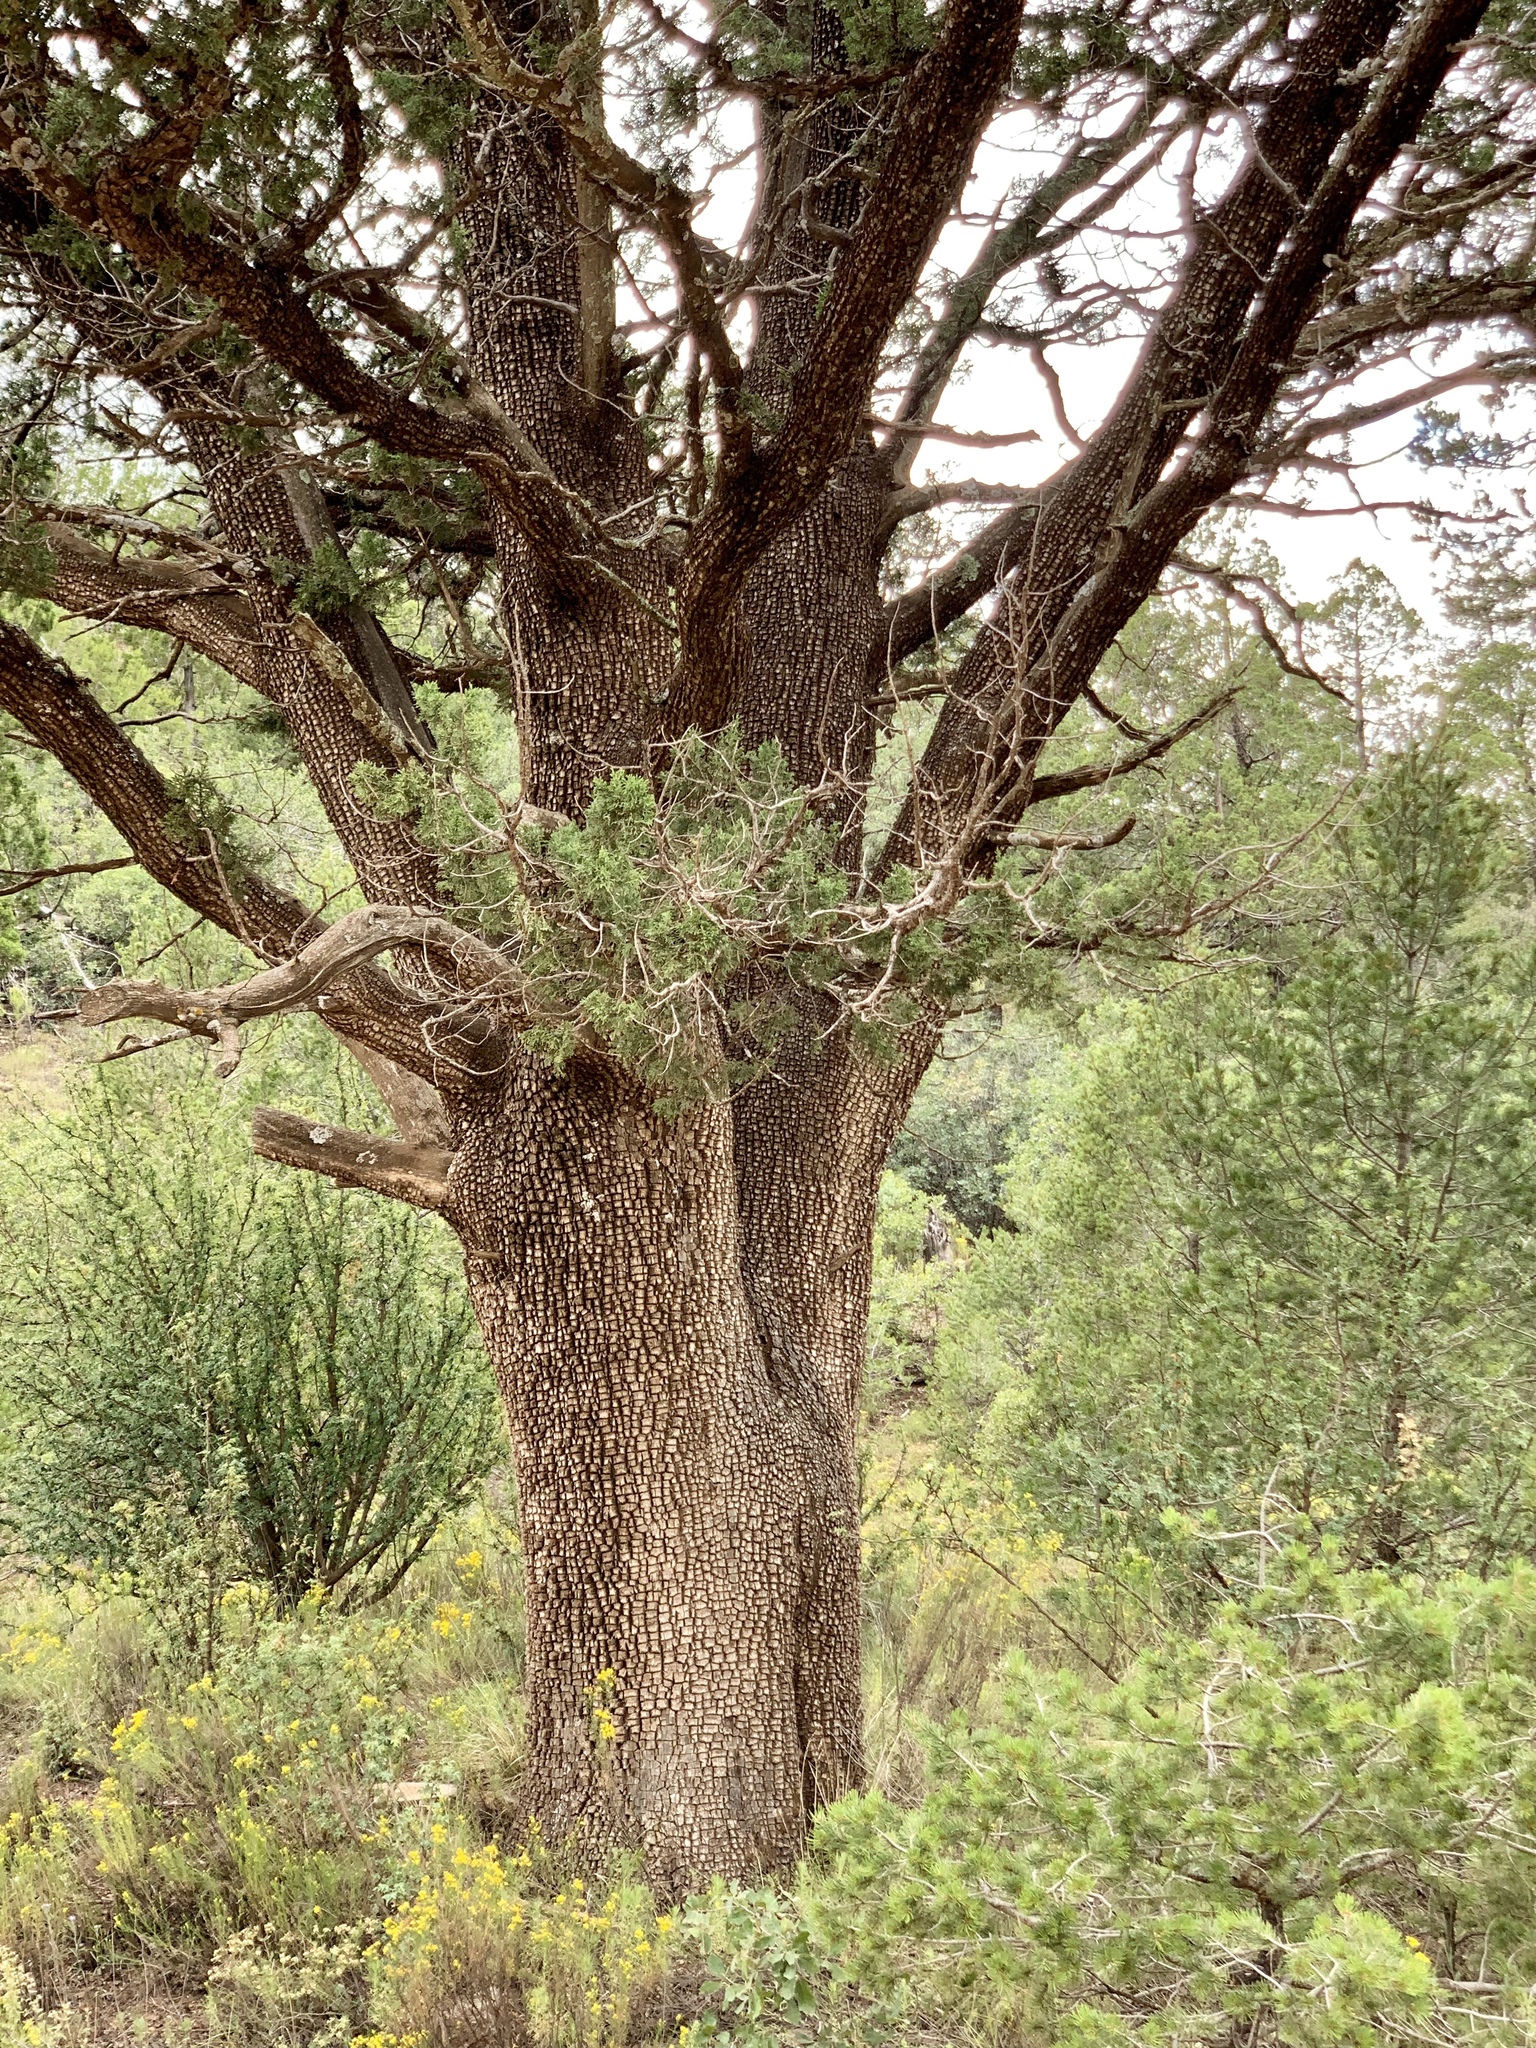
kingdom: Plantae
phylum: Tracheophyta
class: Pinopsida
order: Pinales
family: Cupressaceae
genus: Juniperus
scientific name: Juniperus deppeana
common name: Alligator juniper
